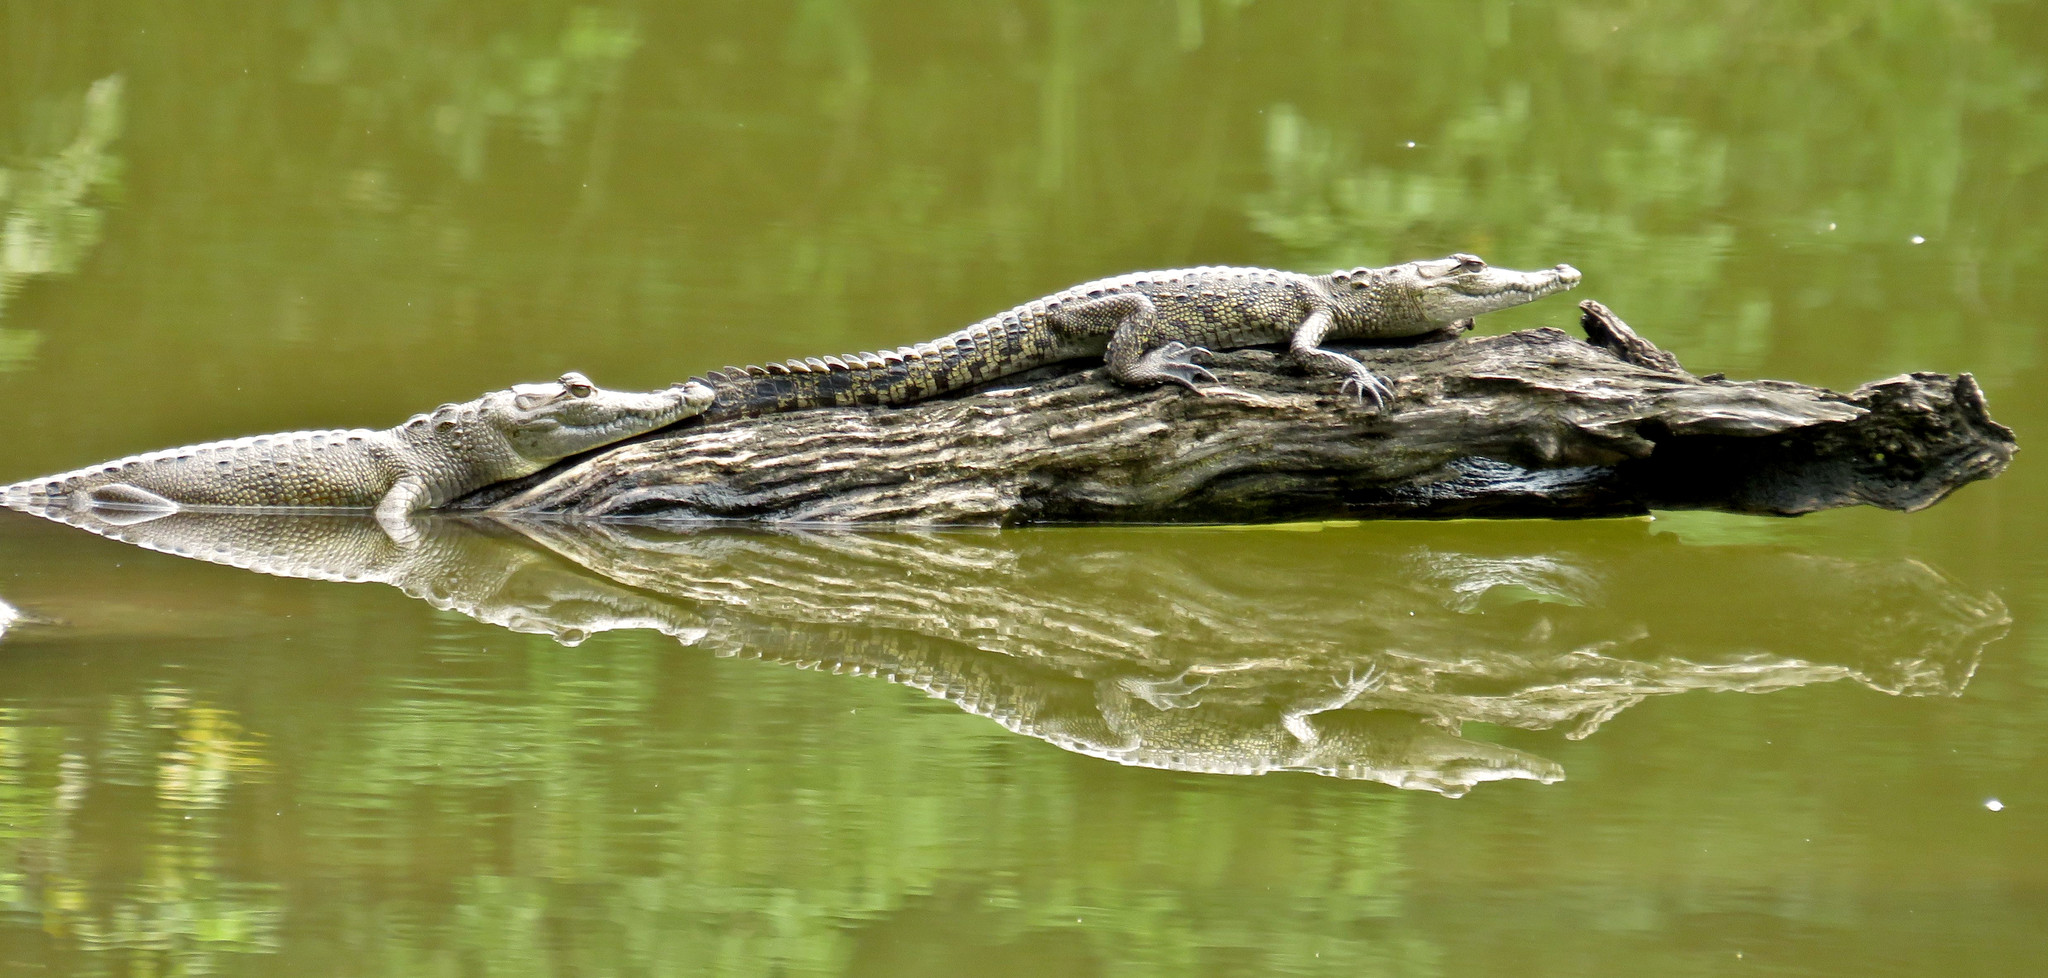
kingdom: Animalia
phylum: Chordata
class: Crocodylia
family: Crocodylidae
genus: Crocodylus
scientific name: Crocodylus moreletii
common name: Morelet's crocodile
